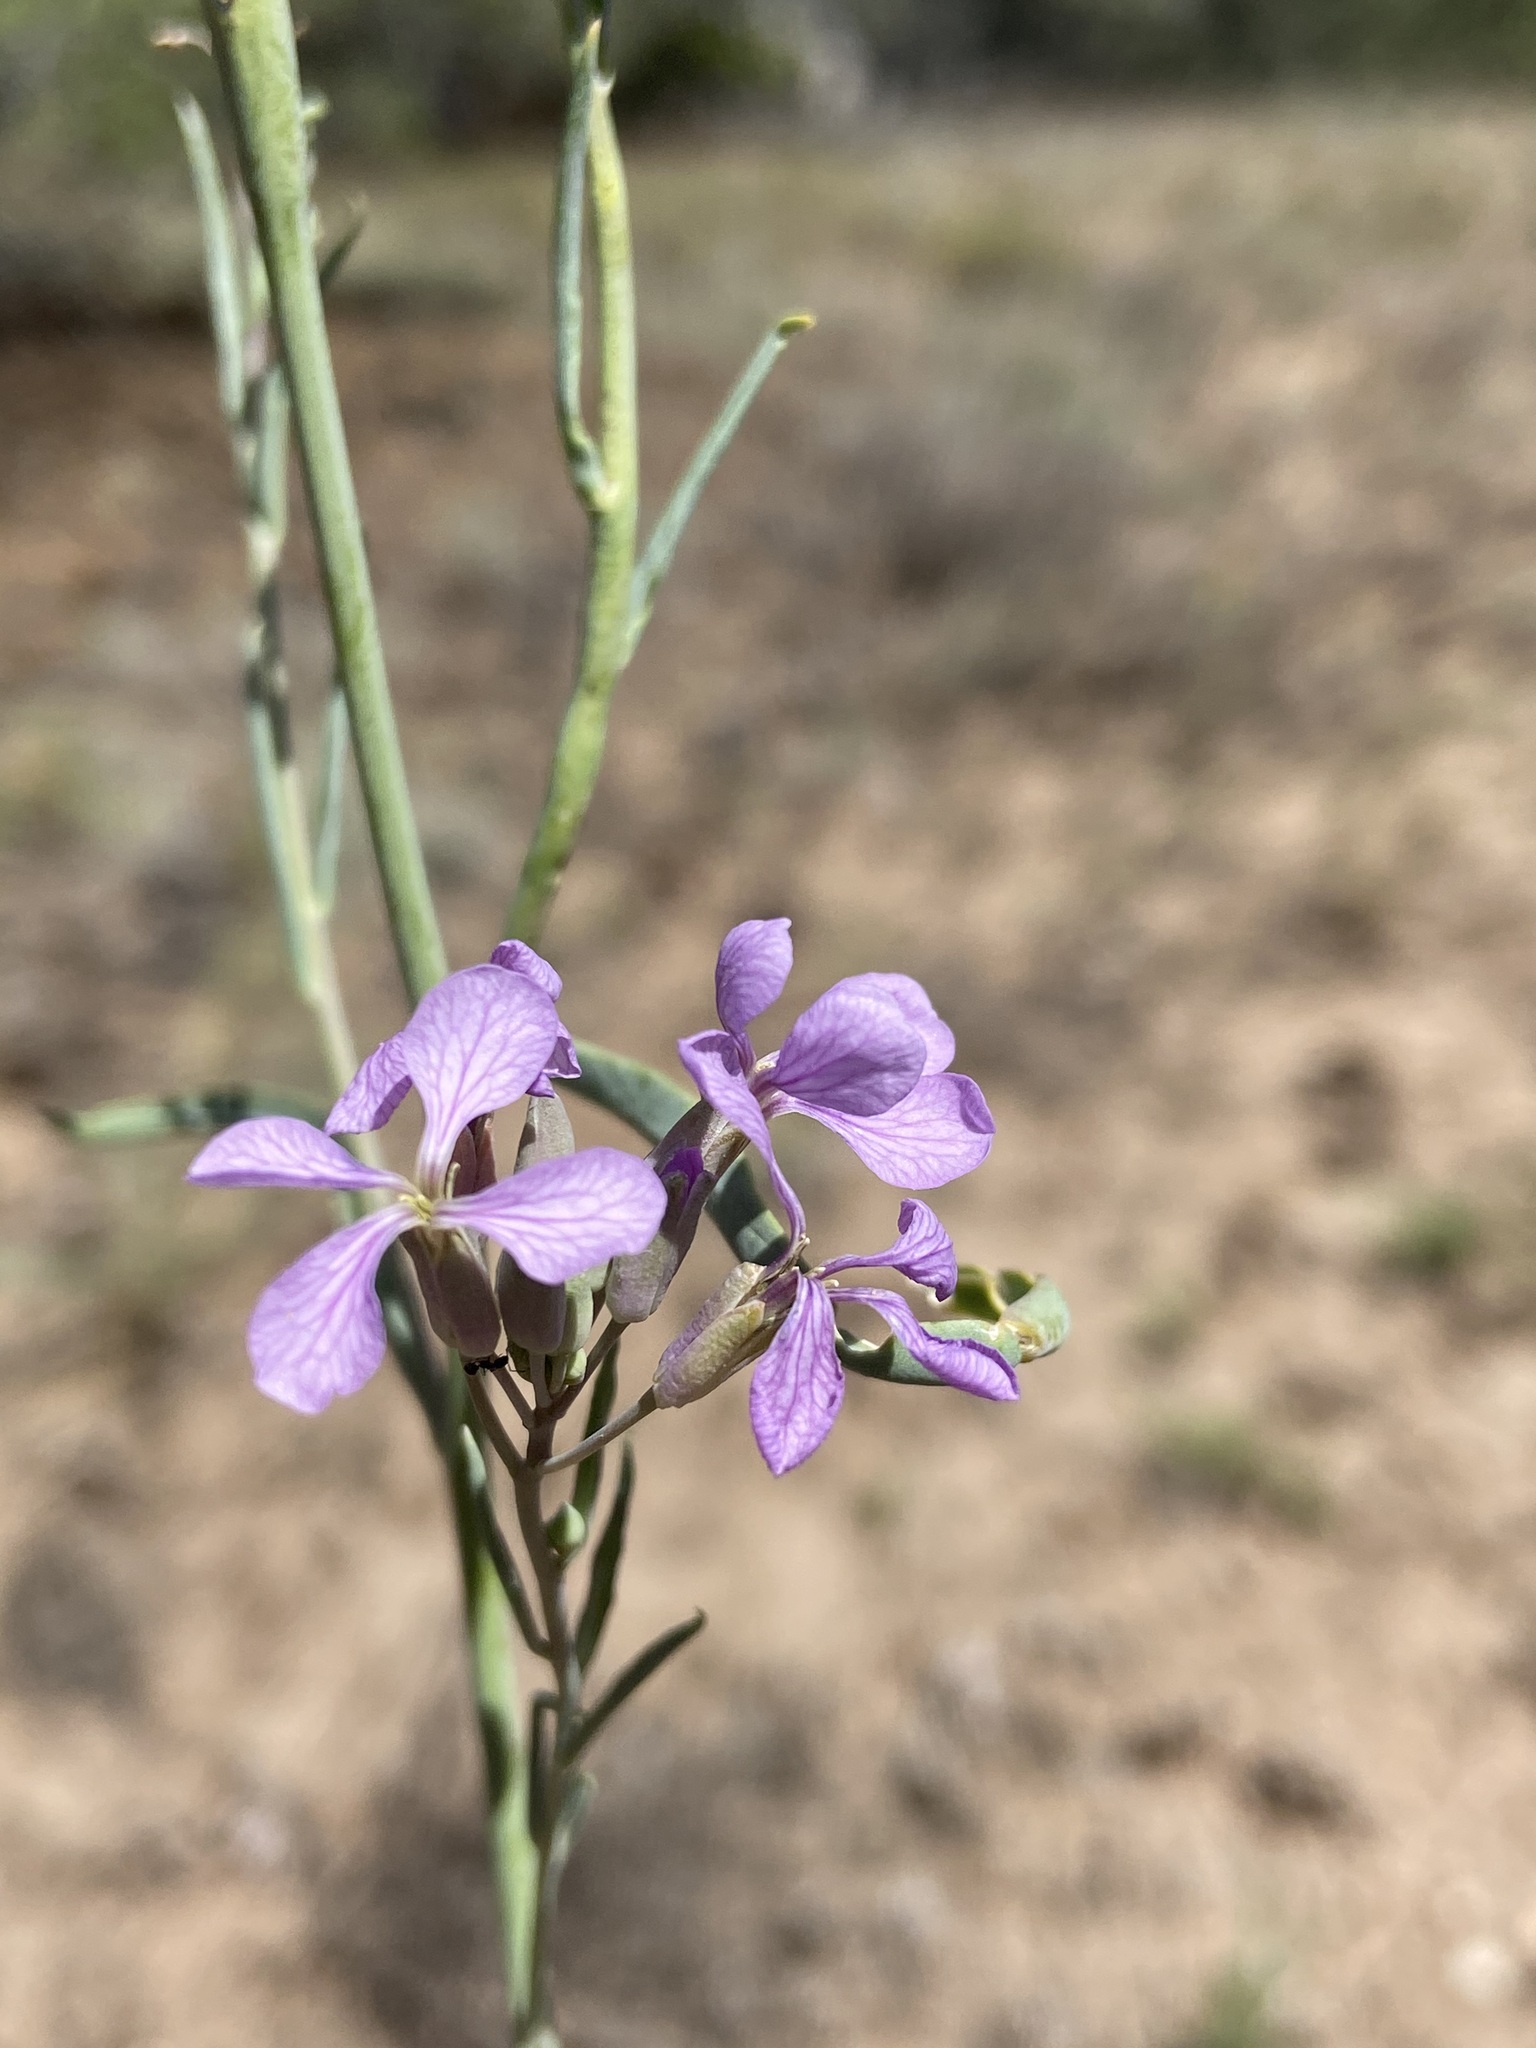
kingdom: Plantae
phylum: Tracheophyta
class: Magnoliopsida
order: Brassicales
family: Brassicaceae
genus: Hesperidanthus
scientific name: Hesperidanthus linearifolius
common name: Slim-leaf plains mustard
